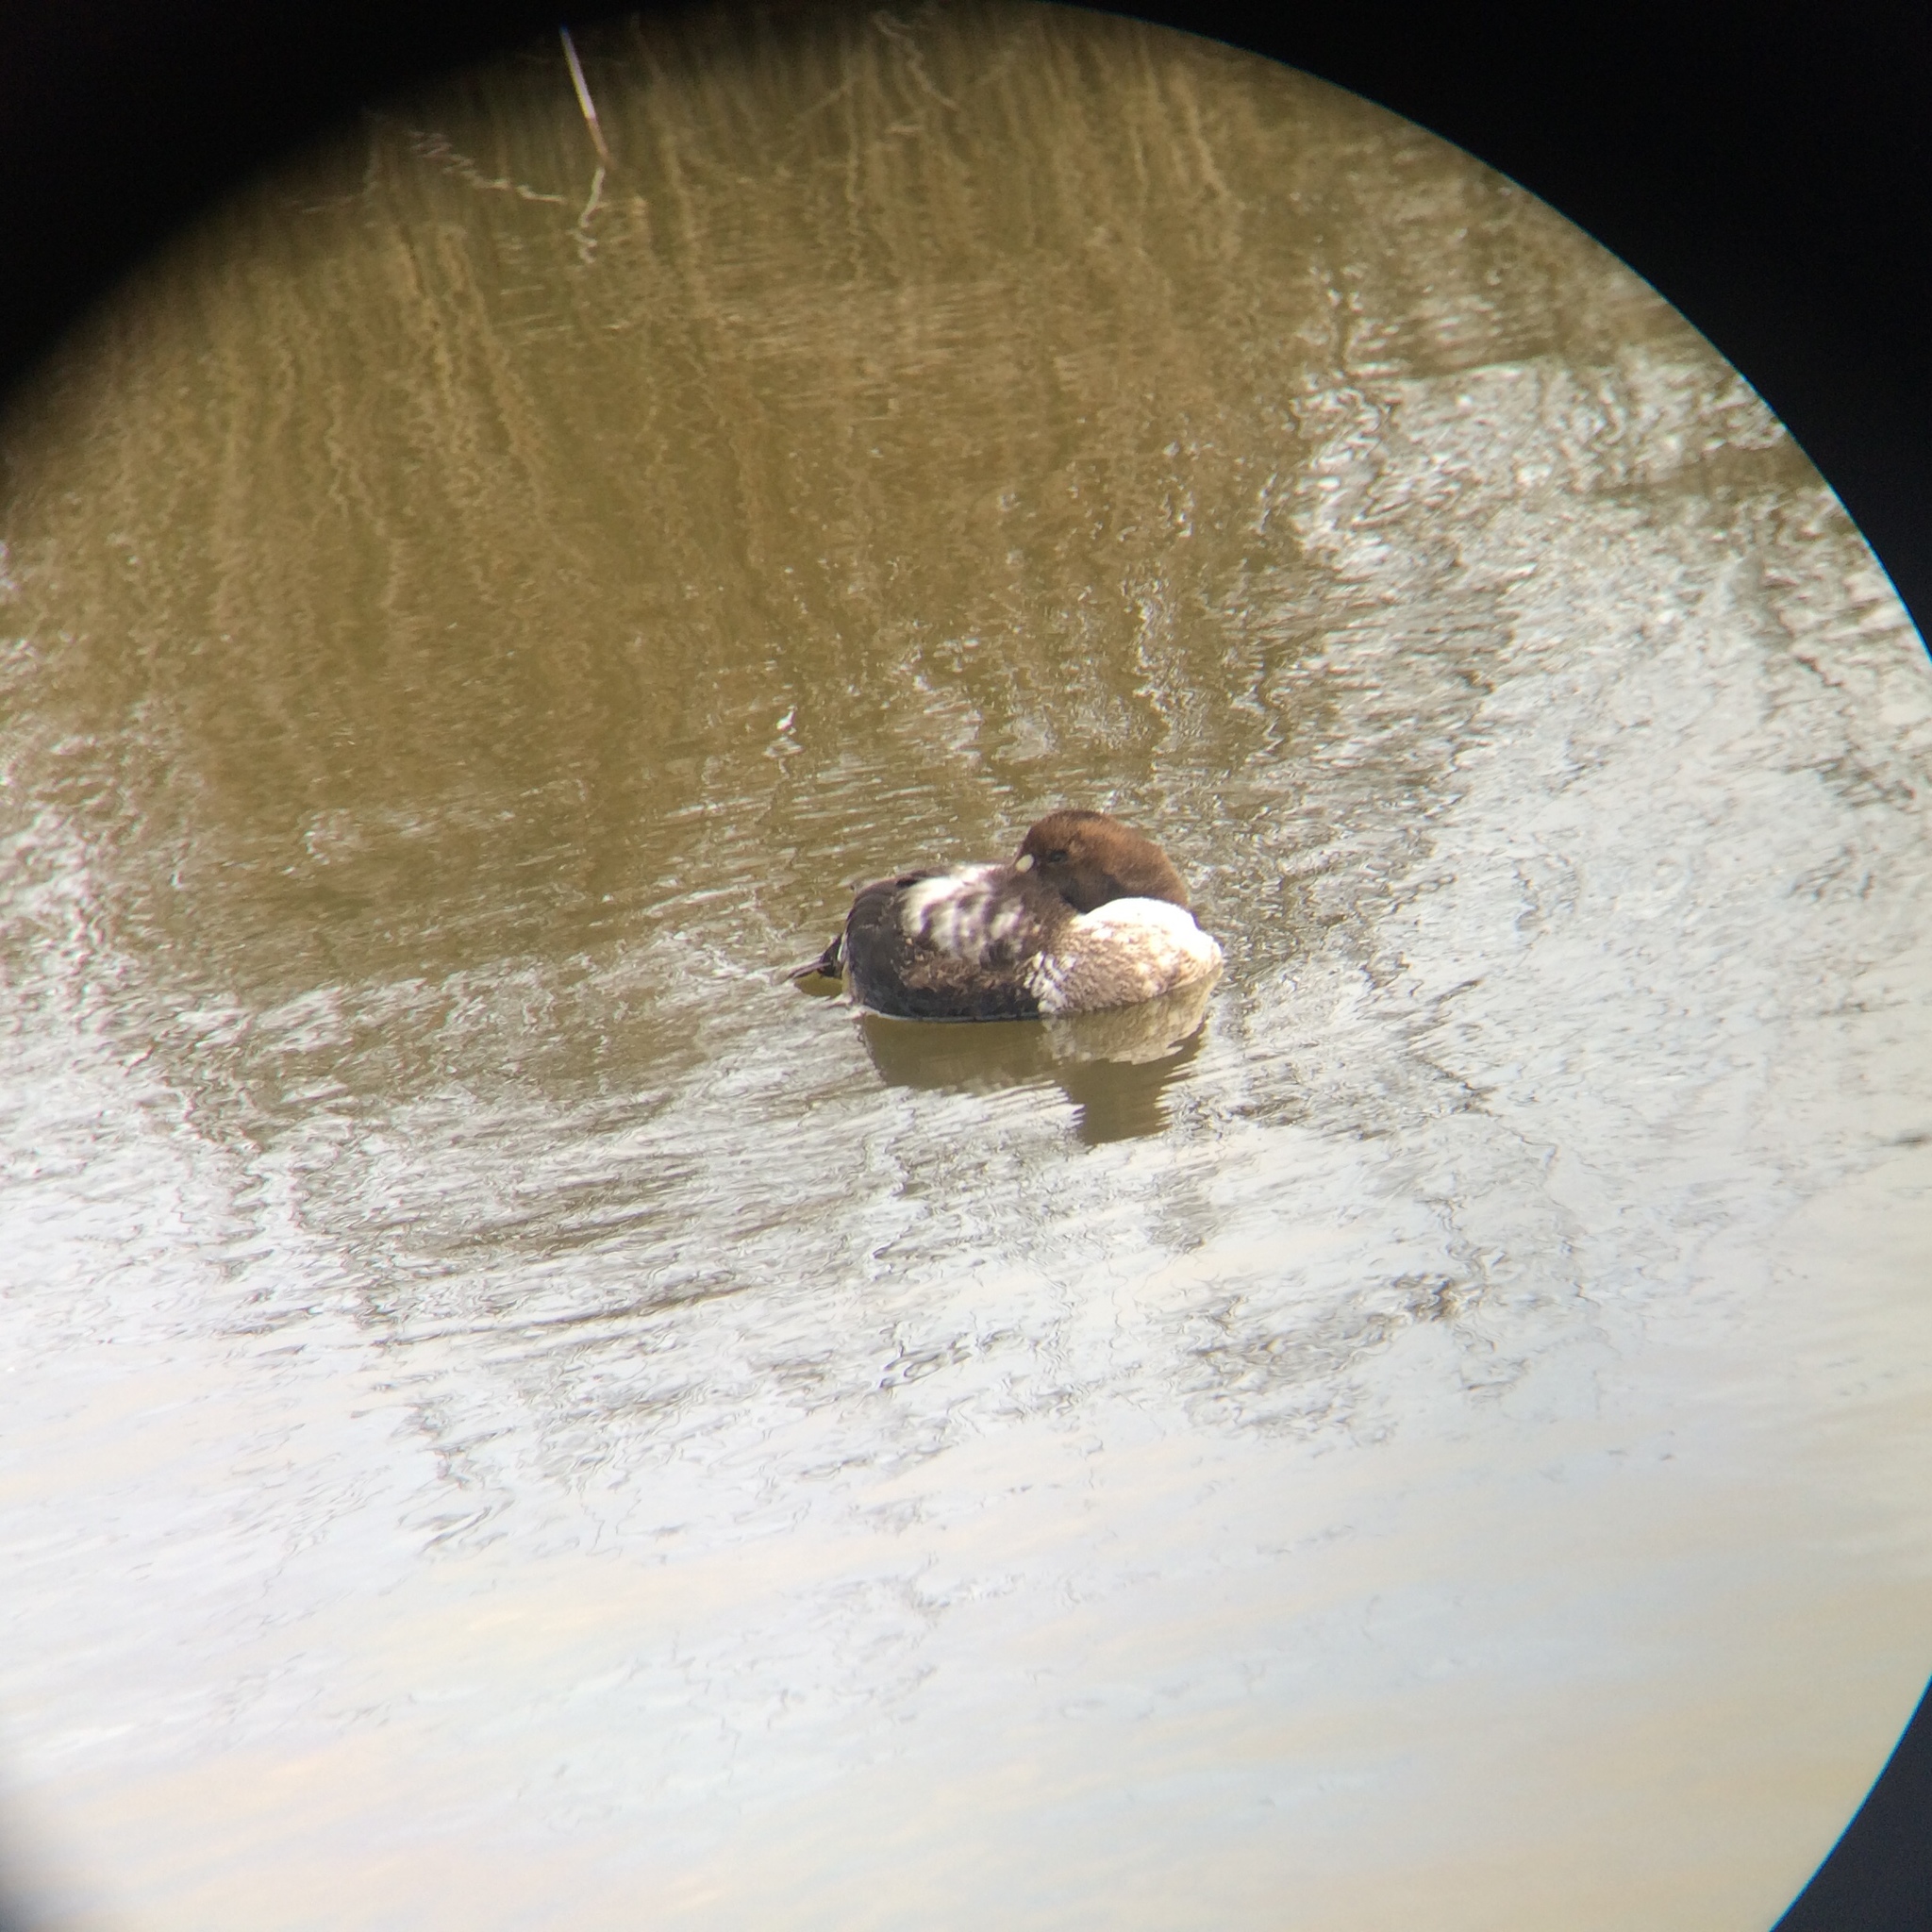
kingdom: Animalia
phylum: Chordata
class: Aves
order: Anseriformes
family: Anatidae
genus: Somateria
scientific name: Somateria mollissima
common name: Common eider
